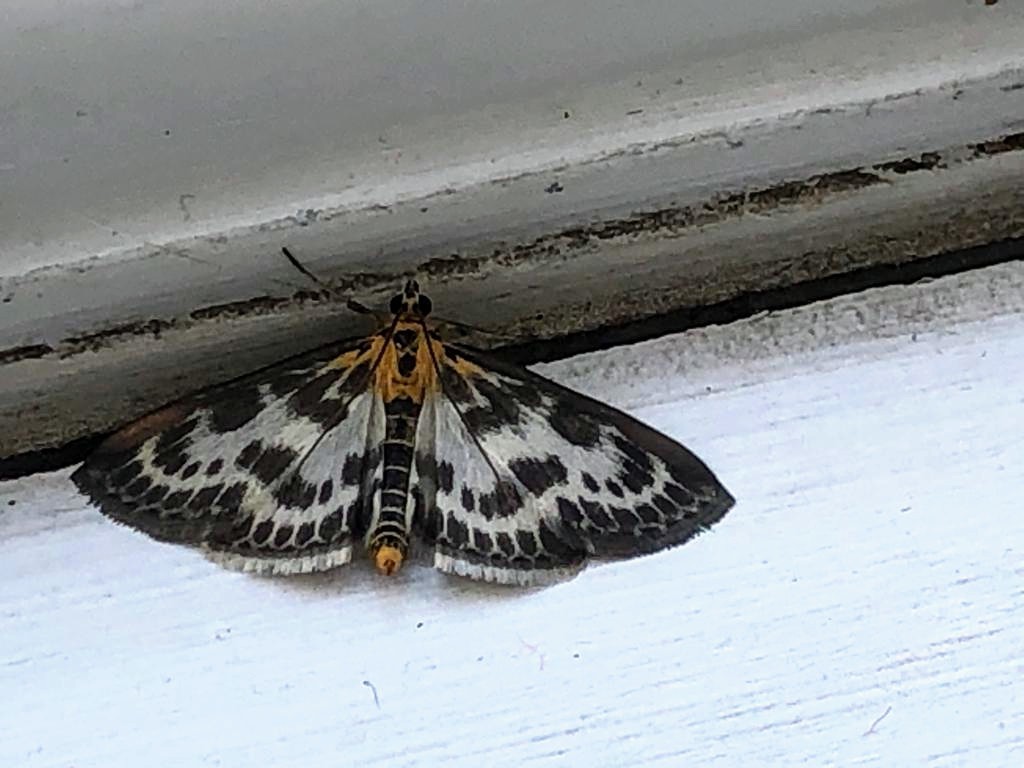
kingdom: Animalia
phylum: Arthropoda
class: Insecta
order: Lepidoptera
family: Crambidae
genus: Anania
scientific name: Anania hortulata
